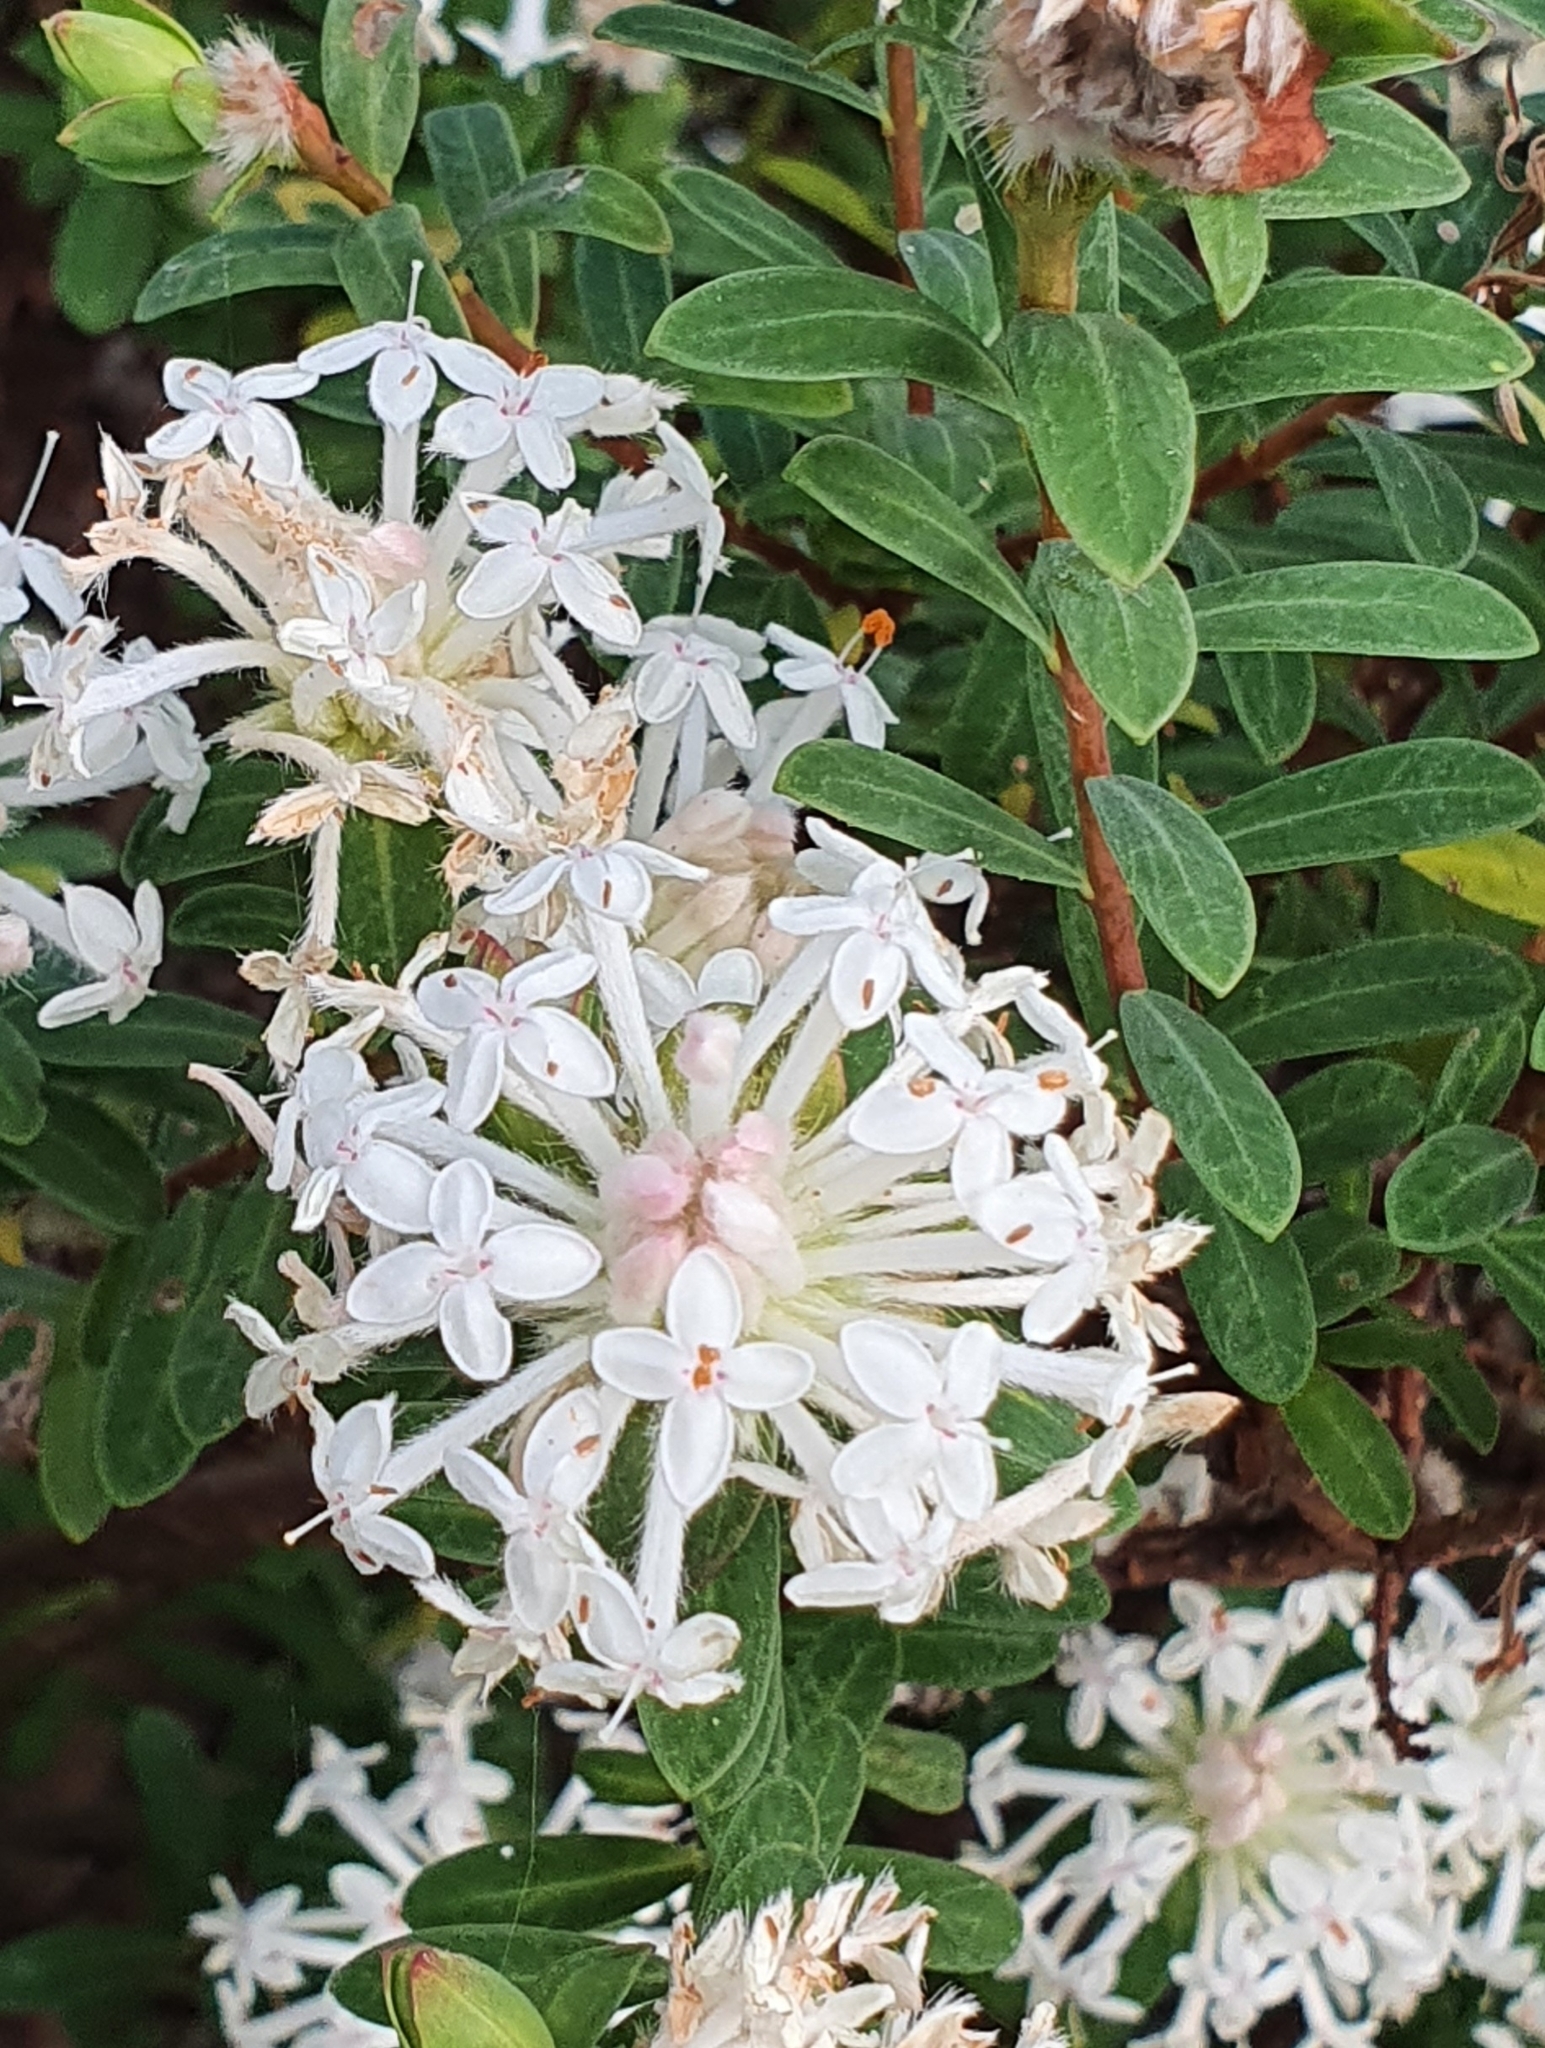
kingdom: Plantae
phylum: Tracheophyta
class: Magnoliopsida
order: Malvales
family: Thymelaeaceae
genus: Pimelea
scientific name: Pimelea linifolia
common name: Queen-of-the-bush
